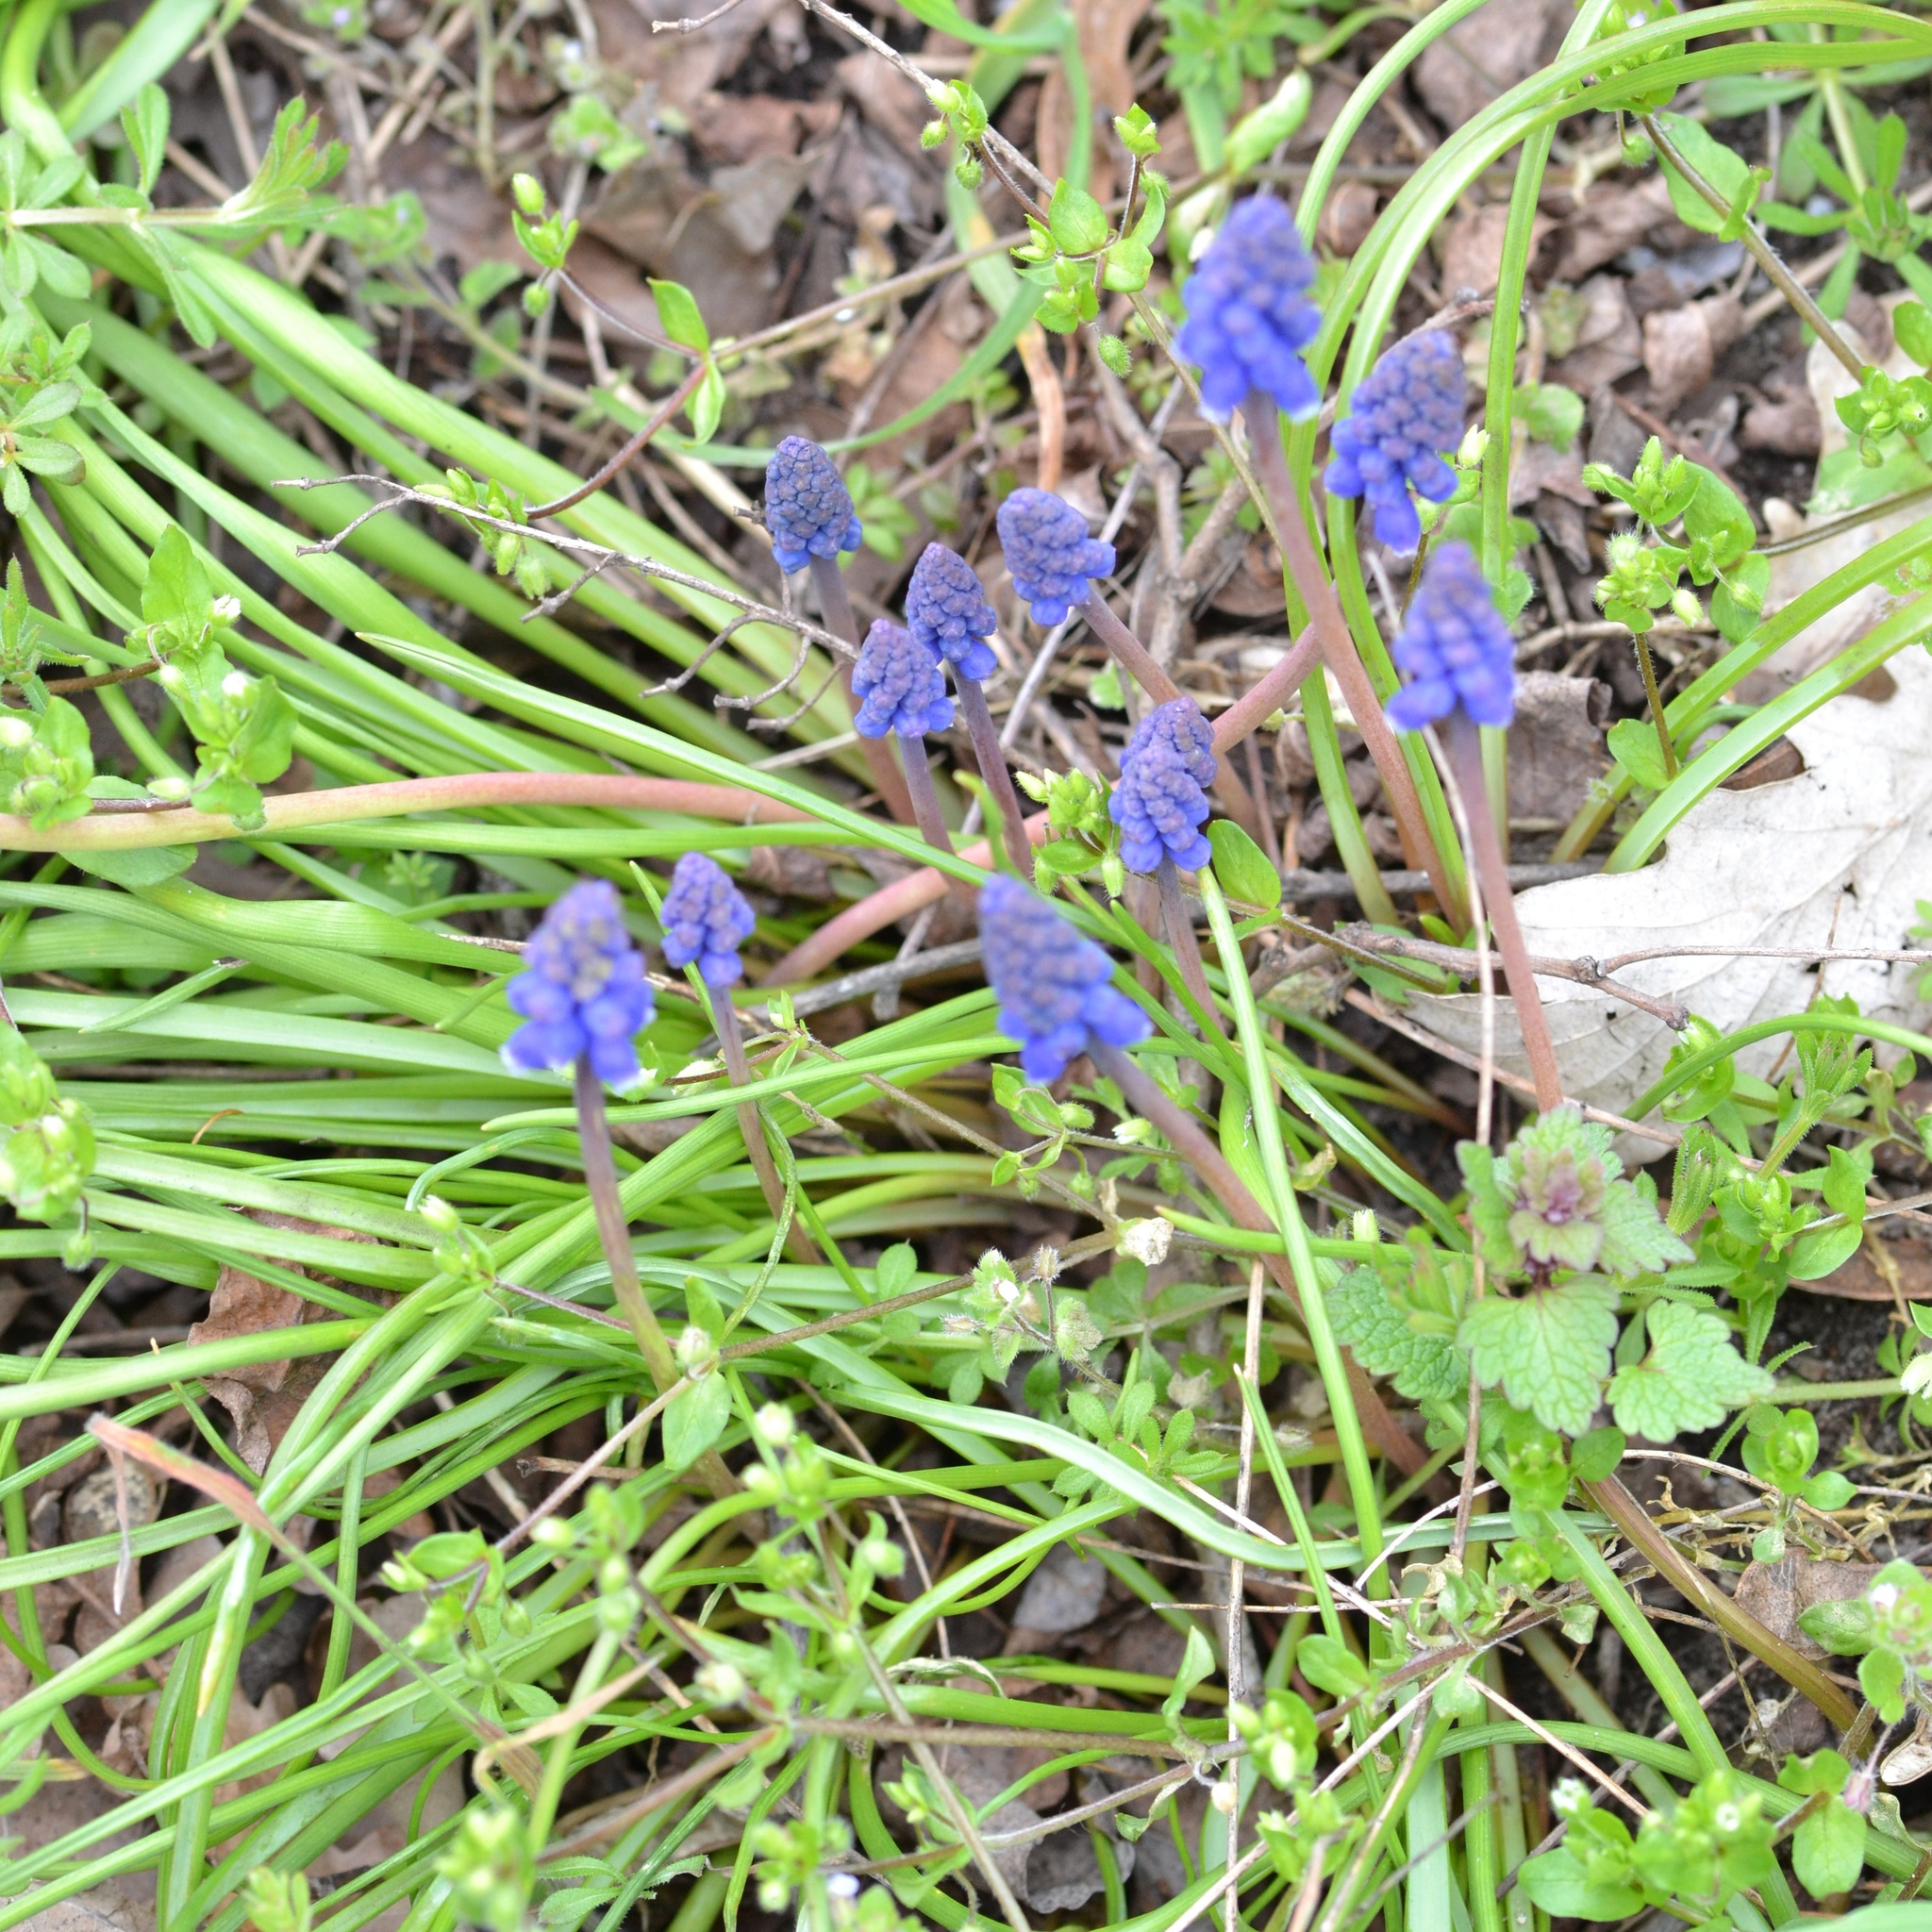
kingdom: Plantae
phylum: Tracheophyta
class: Liliopsida
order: Asparagales
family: Asparagaceae
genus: Muscari
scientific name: Muscari armeniacum
